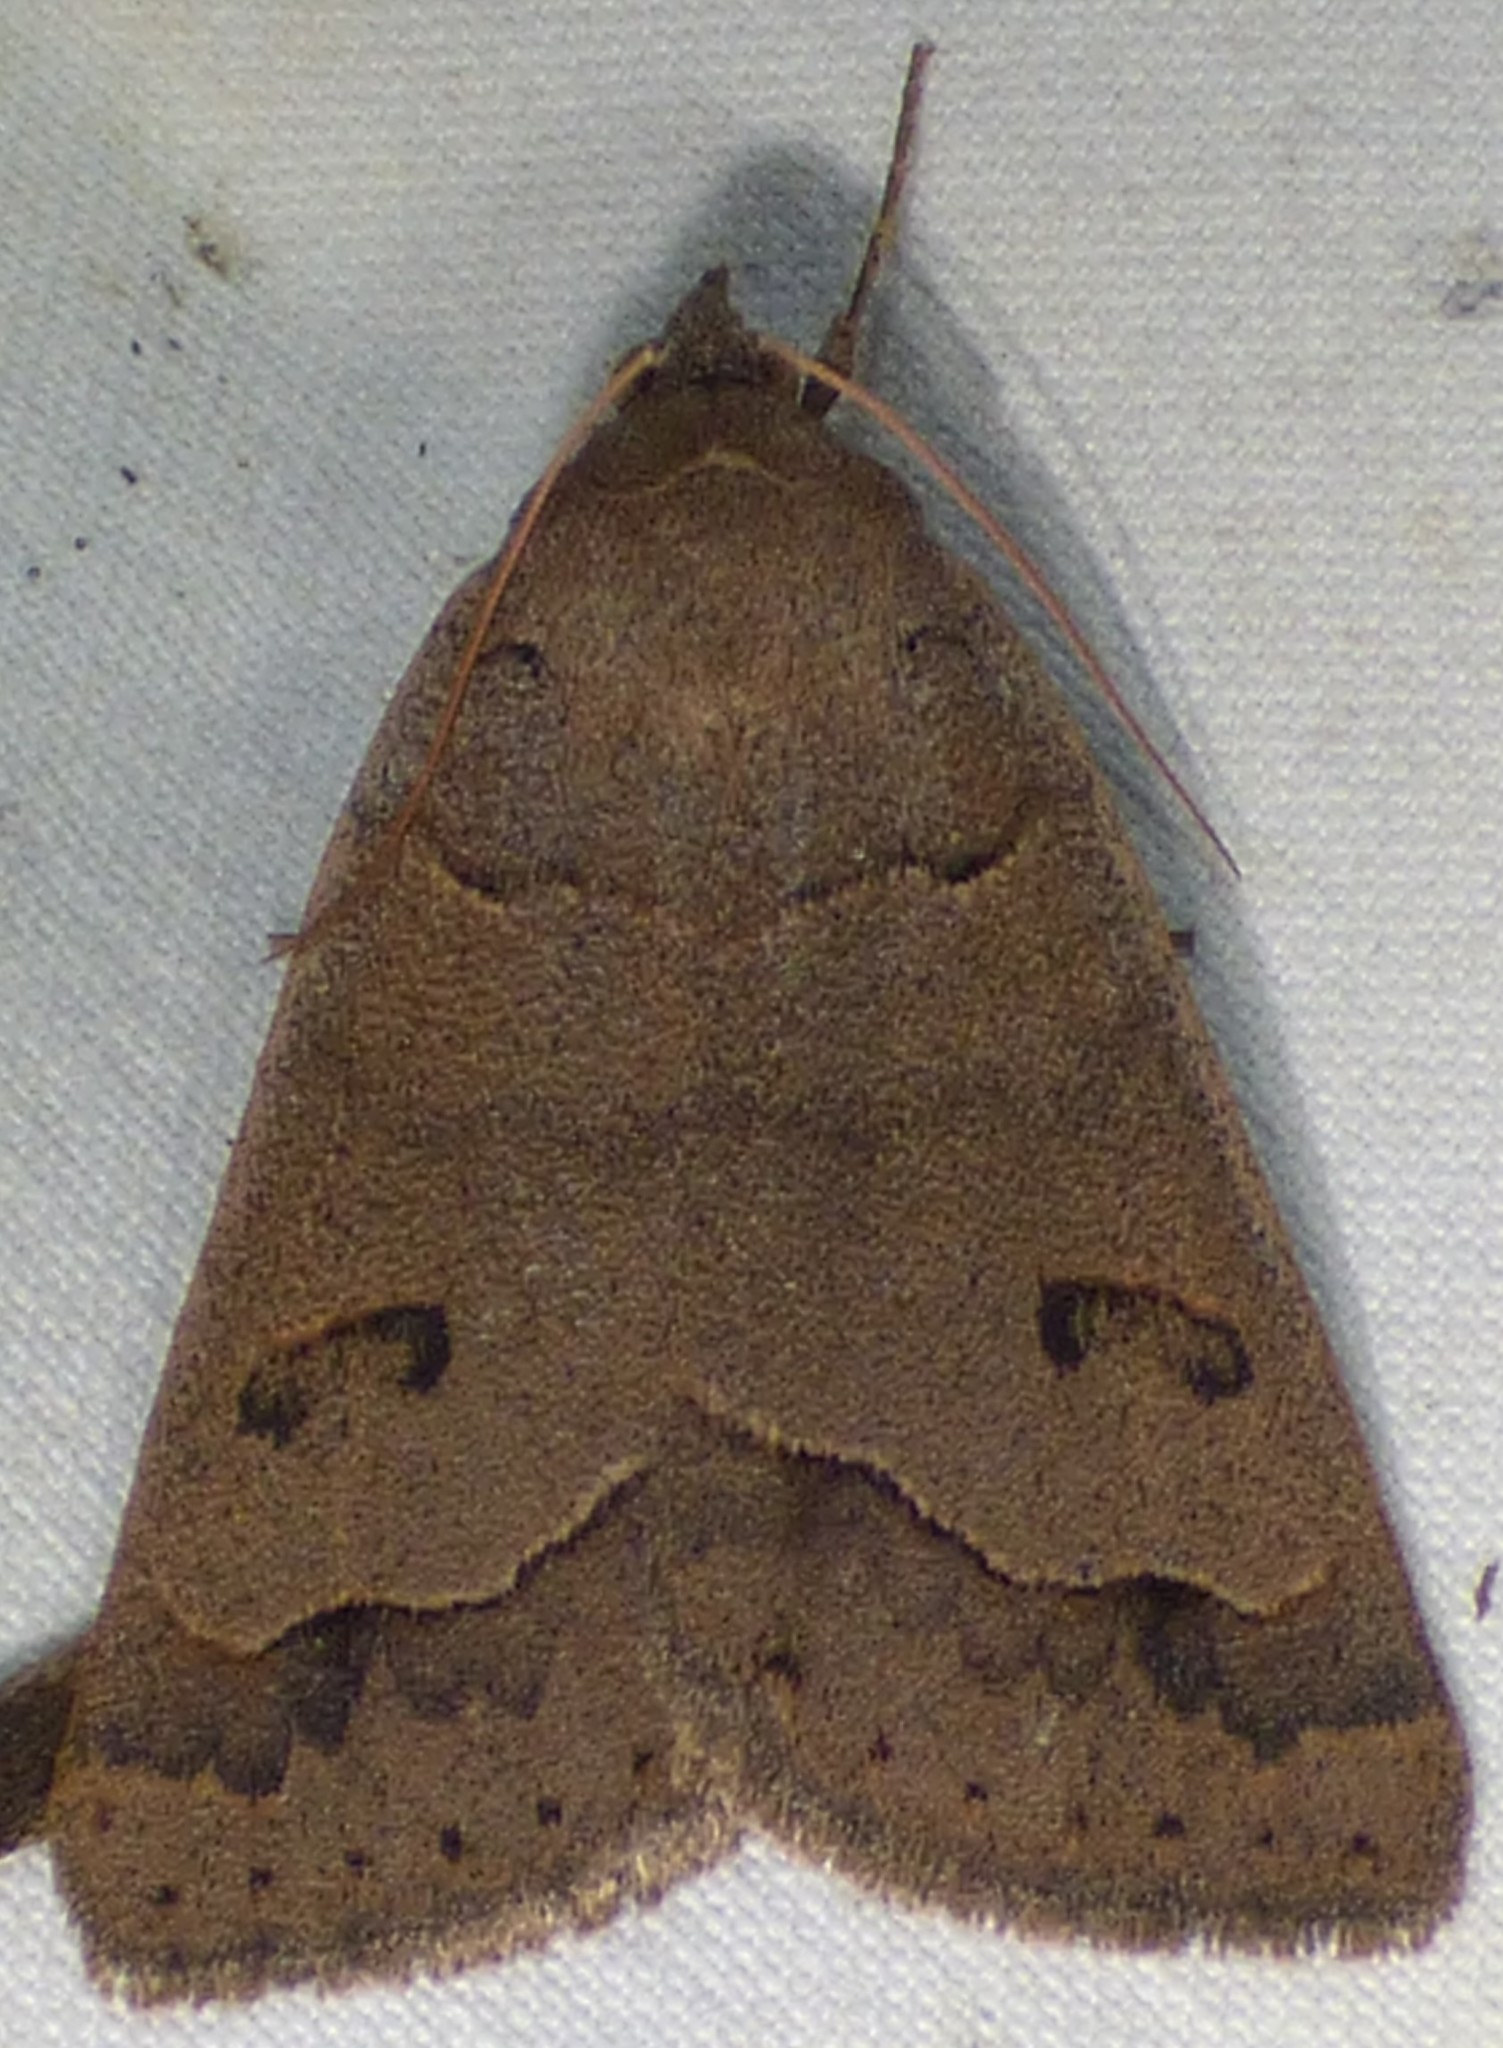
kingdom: Animalia
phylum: Arthropoda
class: Insecta
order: Lepidoptera
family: Erebidae
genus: Phoberia
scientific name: Phoberia atomaris
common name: Common oak moth
